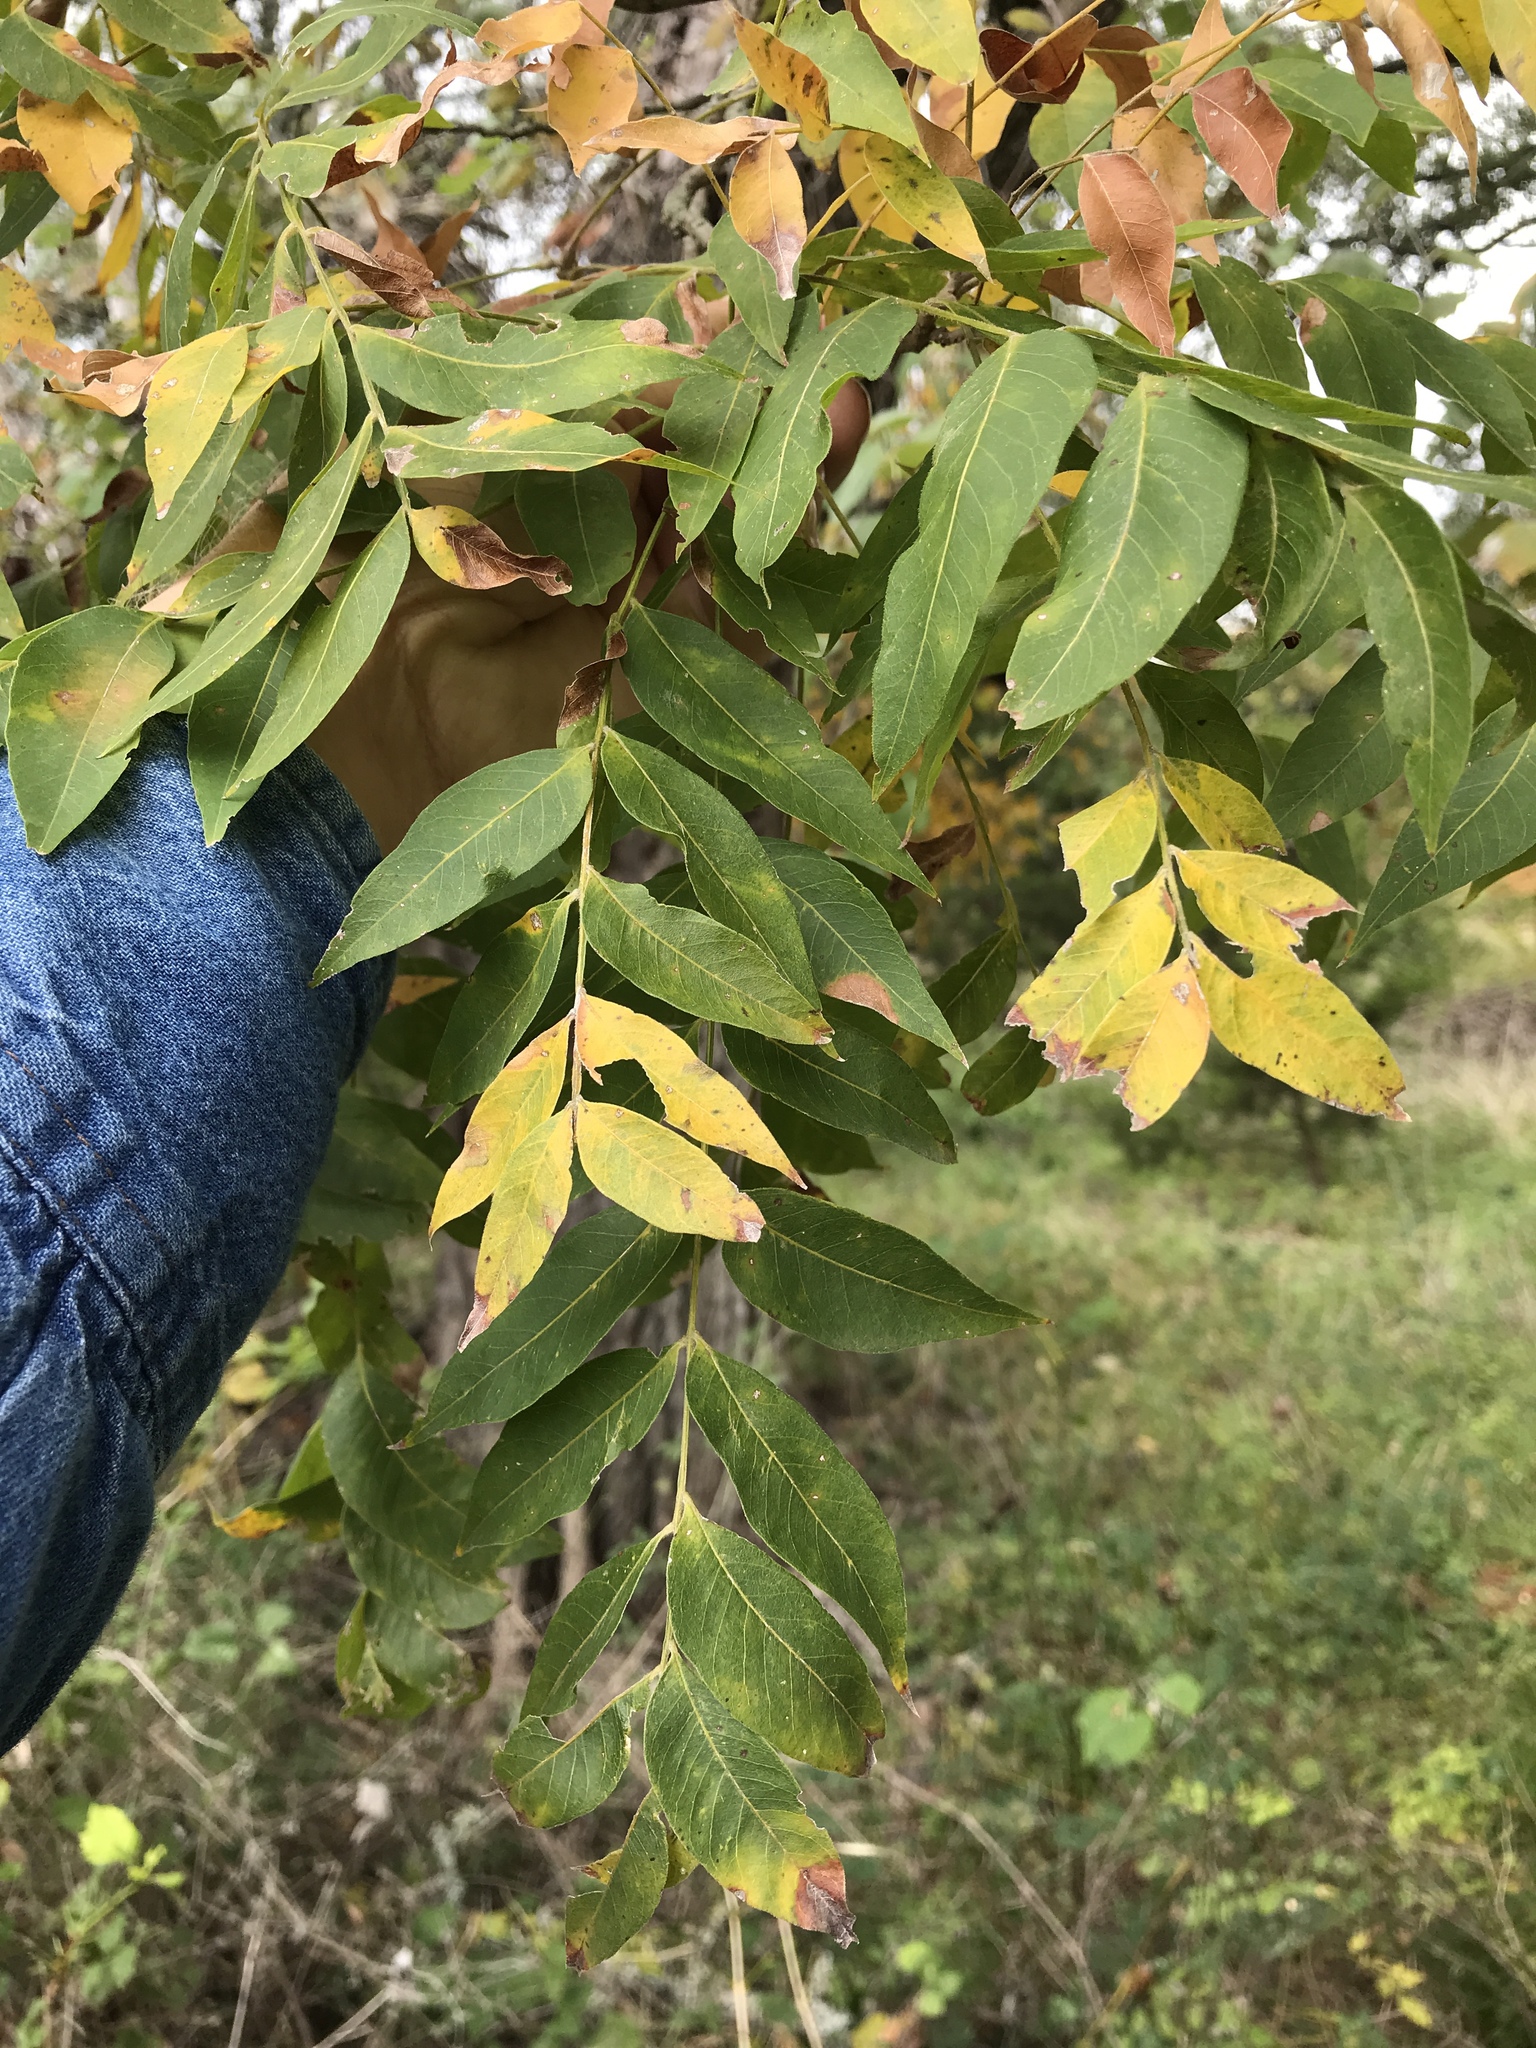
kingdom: Plantae
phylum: Tracheophyta
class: Magnoliopsida
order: Sapindales
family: Sapindaceae
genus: Sapindus
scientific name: Sapindus drummondii
